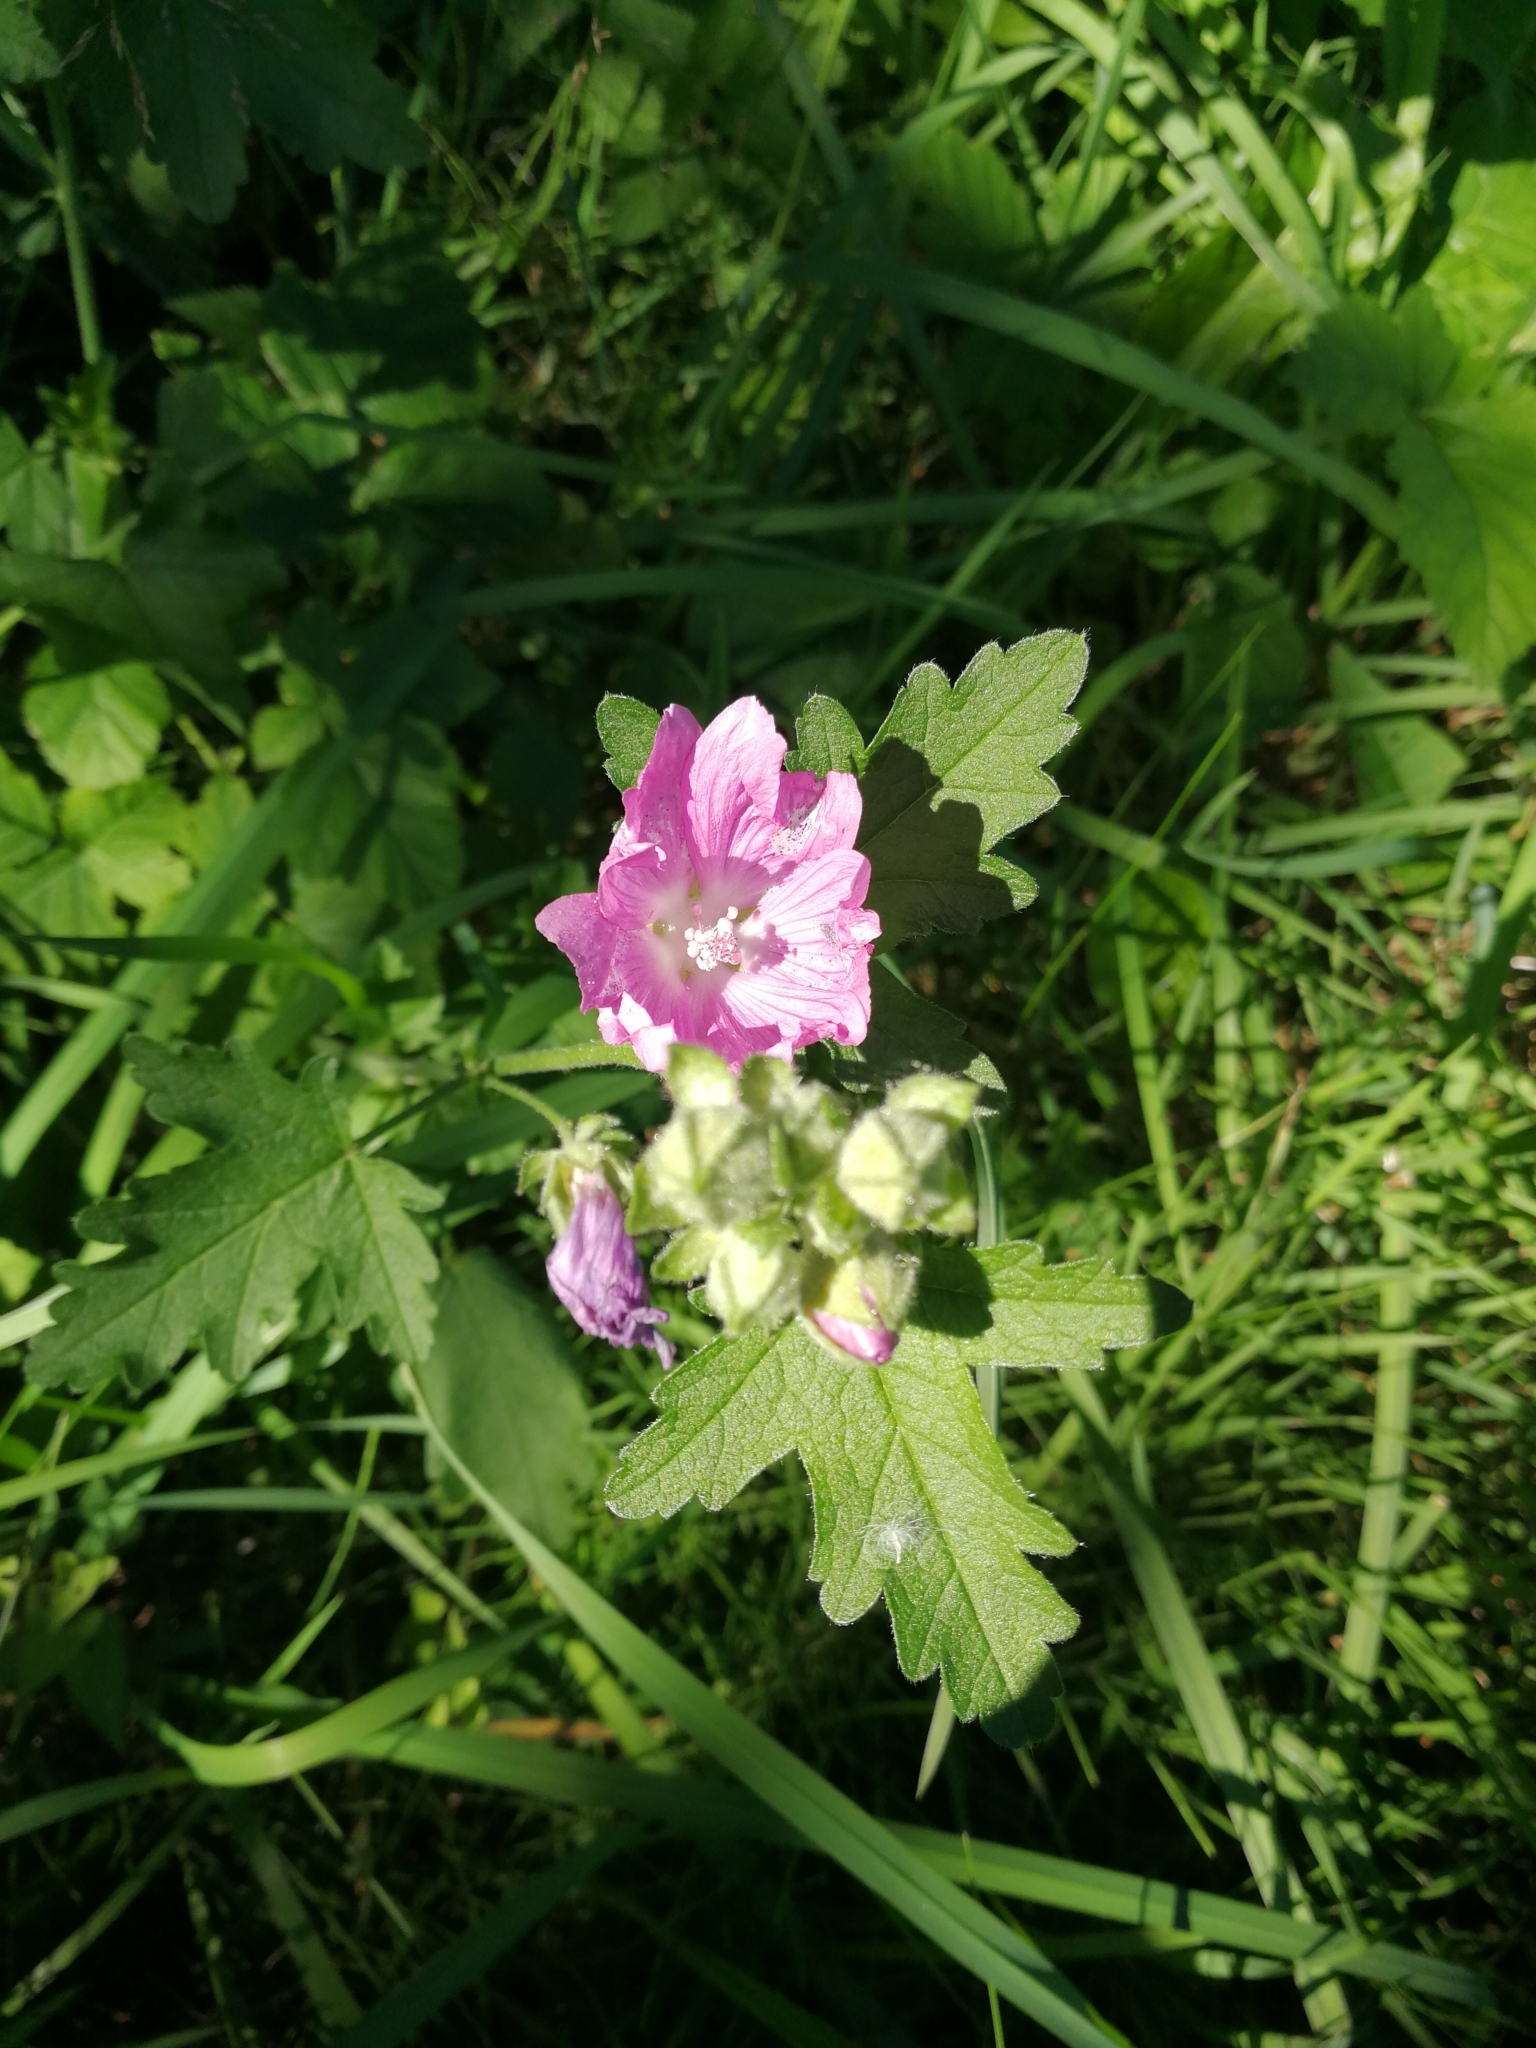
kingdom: Plantae
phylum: Tracheophyta
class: Magnoliopsida
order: Malvales
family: Malvaceae
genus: Malva
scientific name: Malva alcea
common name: Greater musk-mallow
